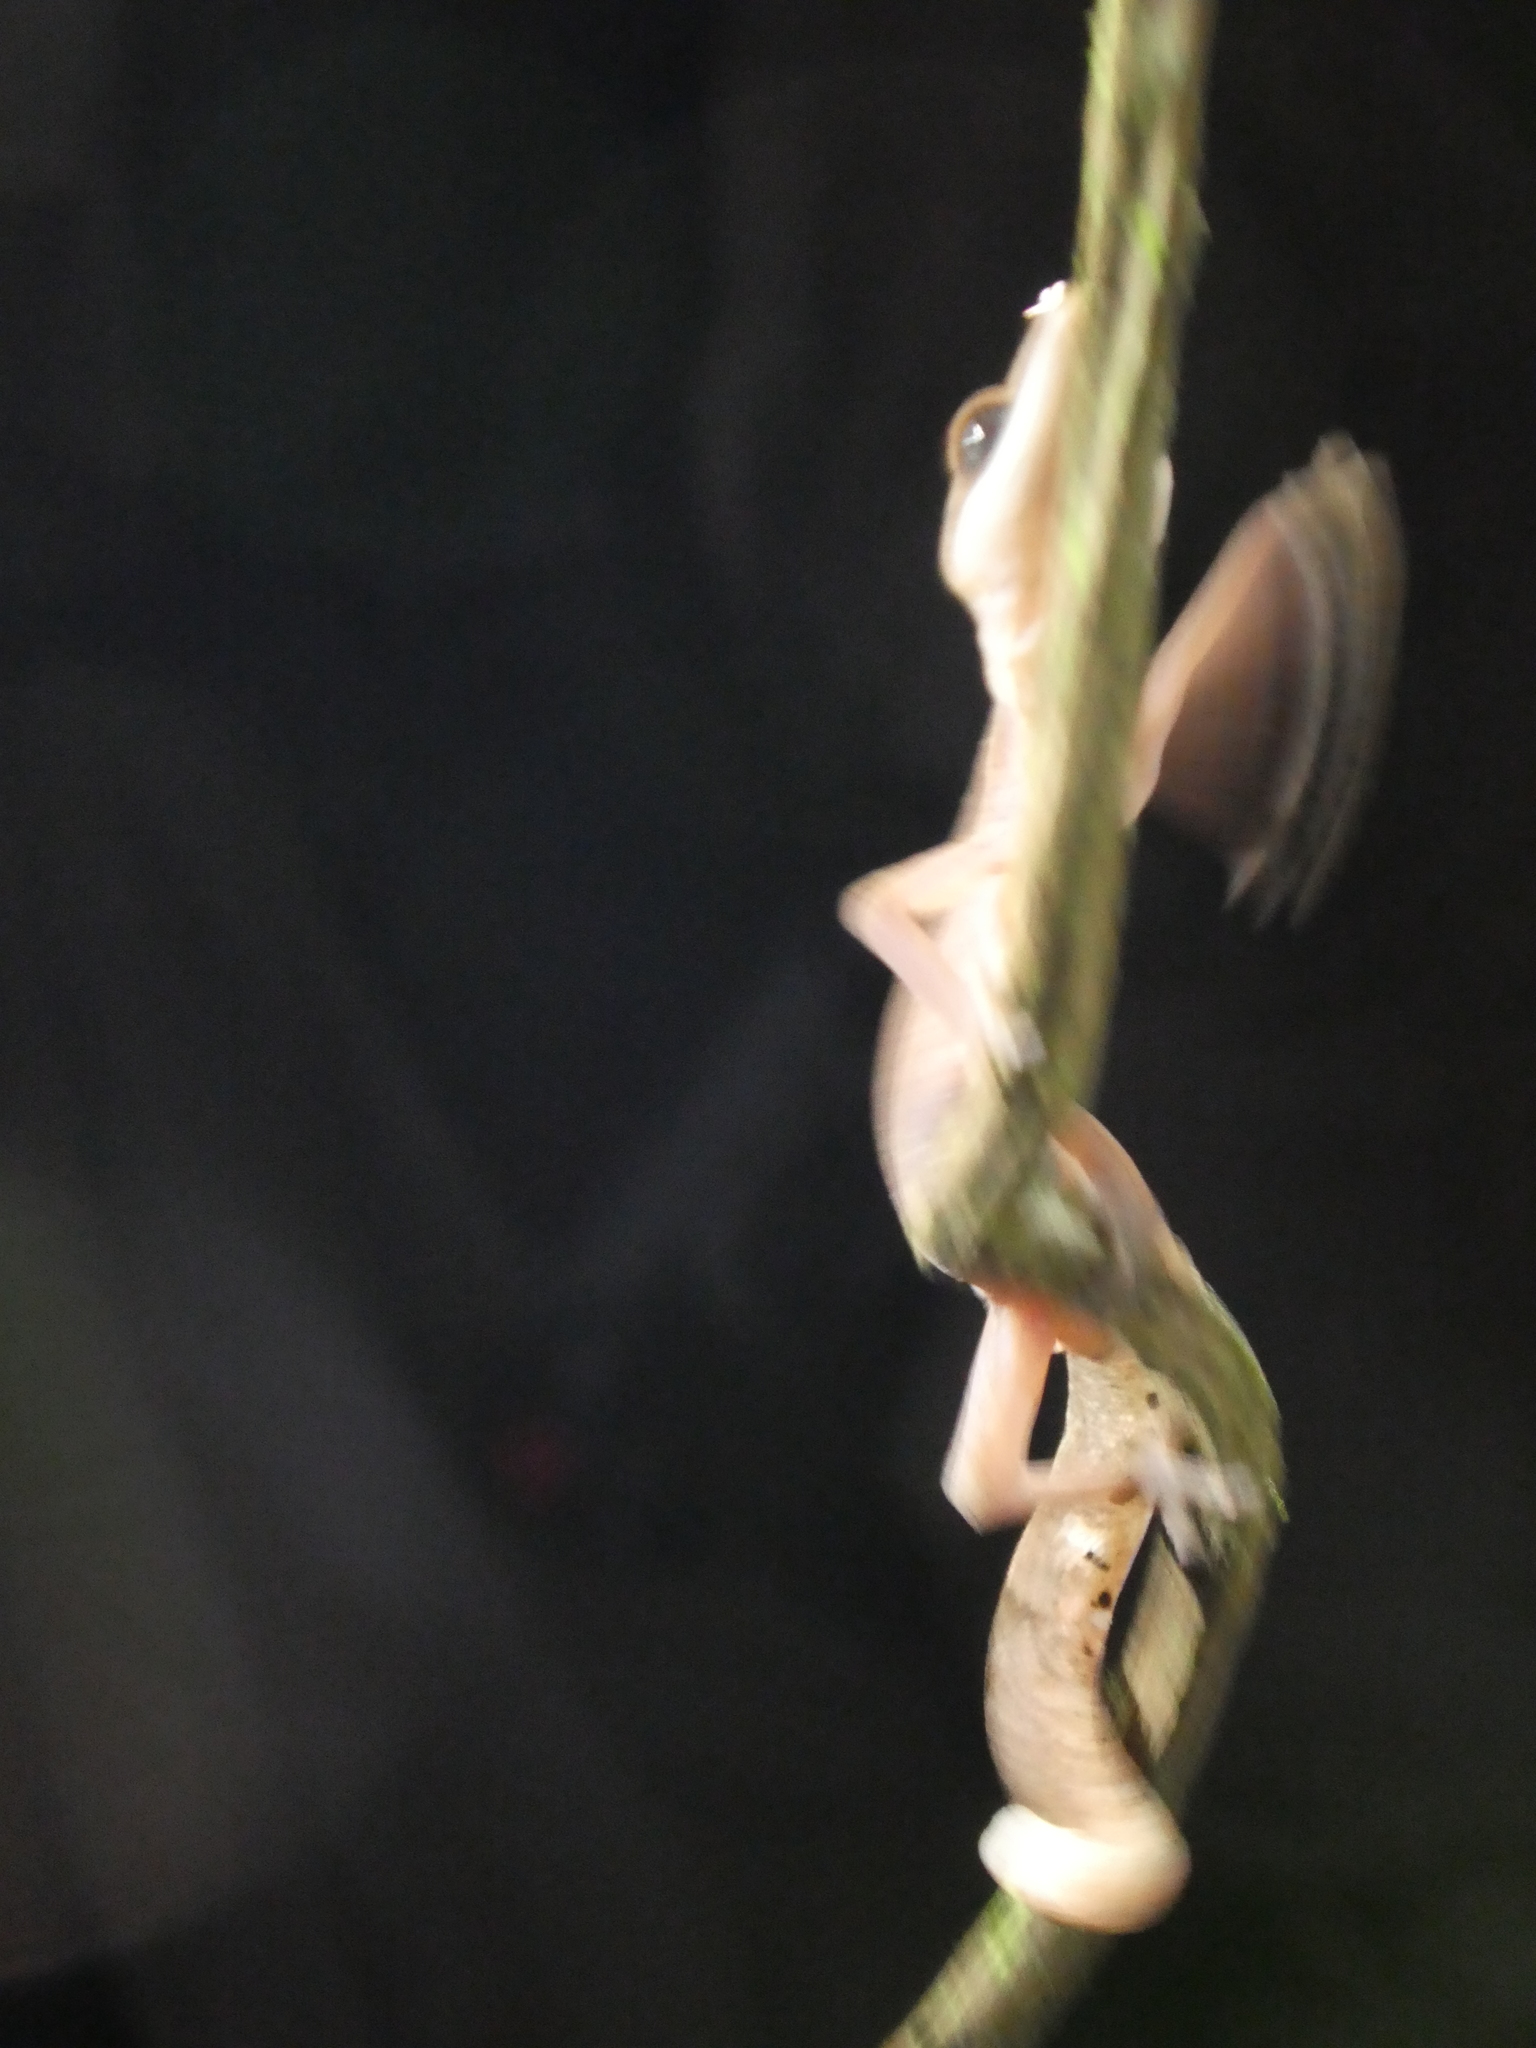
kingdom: Animalia
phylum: Chordata
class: Squamata
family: Eublepharidae
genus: Aeluroscalabotes
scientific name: Aeluroscalabotes felinus
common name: Cat gecko
